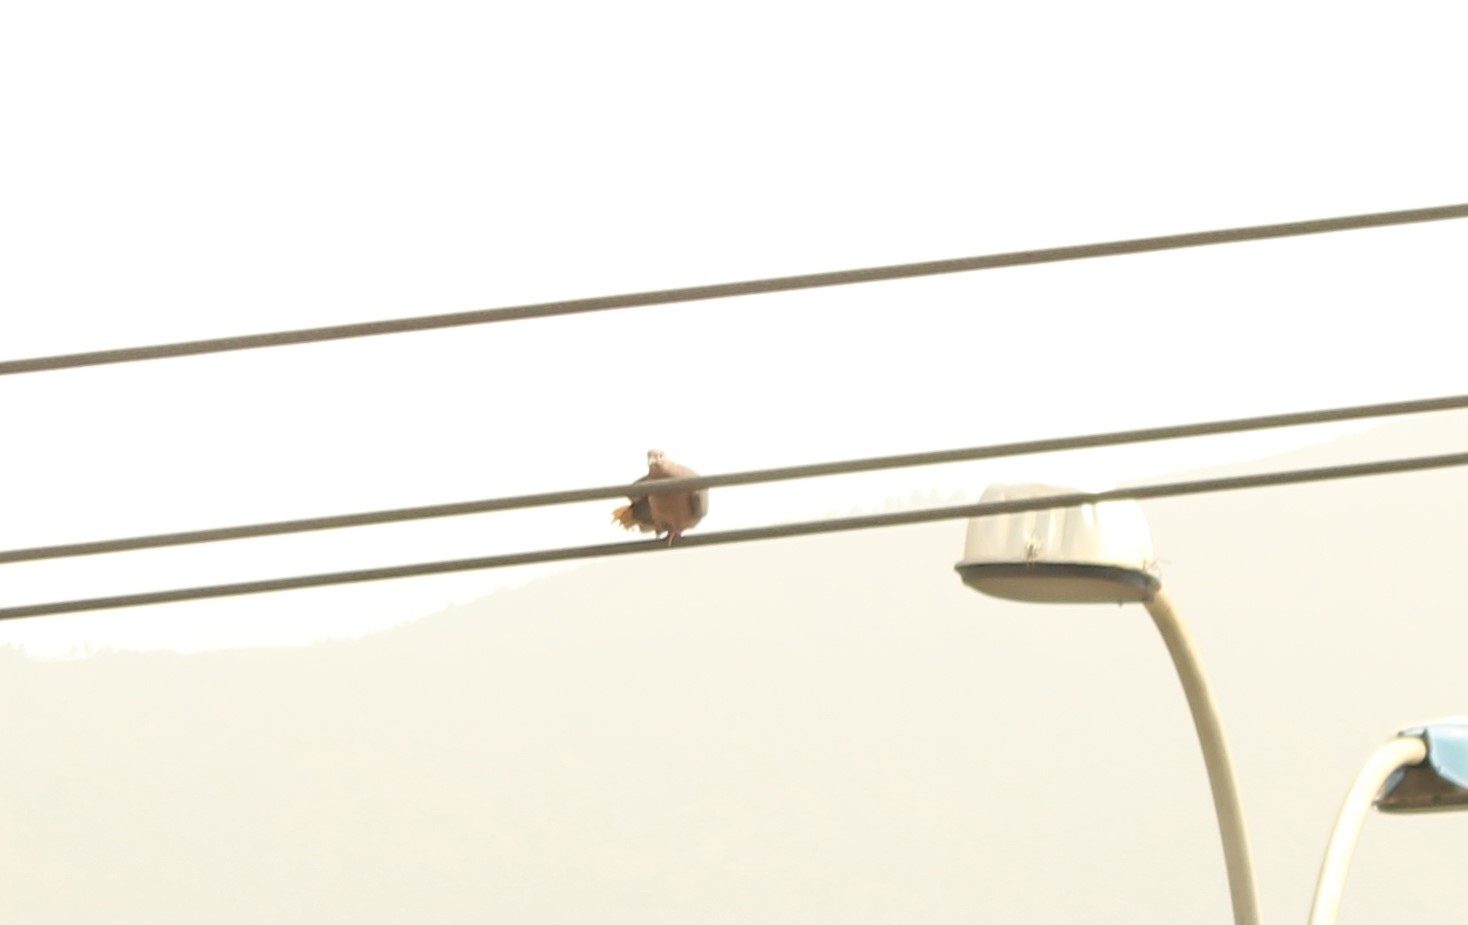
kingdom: Animalia
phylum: Chordata
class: Aves
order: Columbiformes
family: Columbidae
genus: Zenaida
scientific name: Zenaida auriculata
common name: Eared dove
